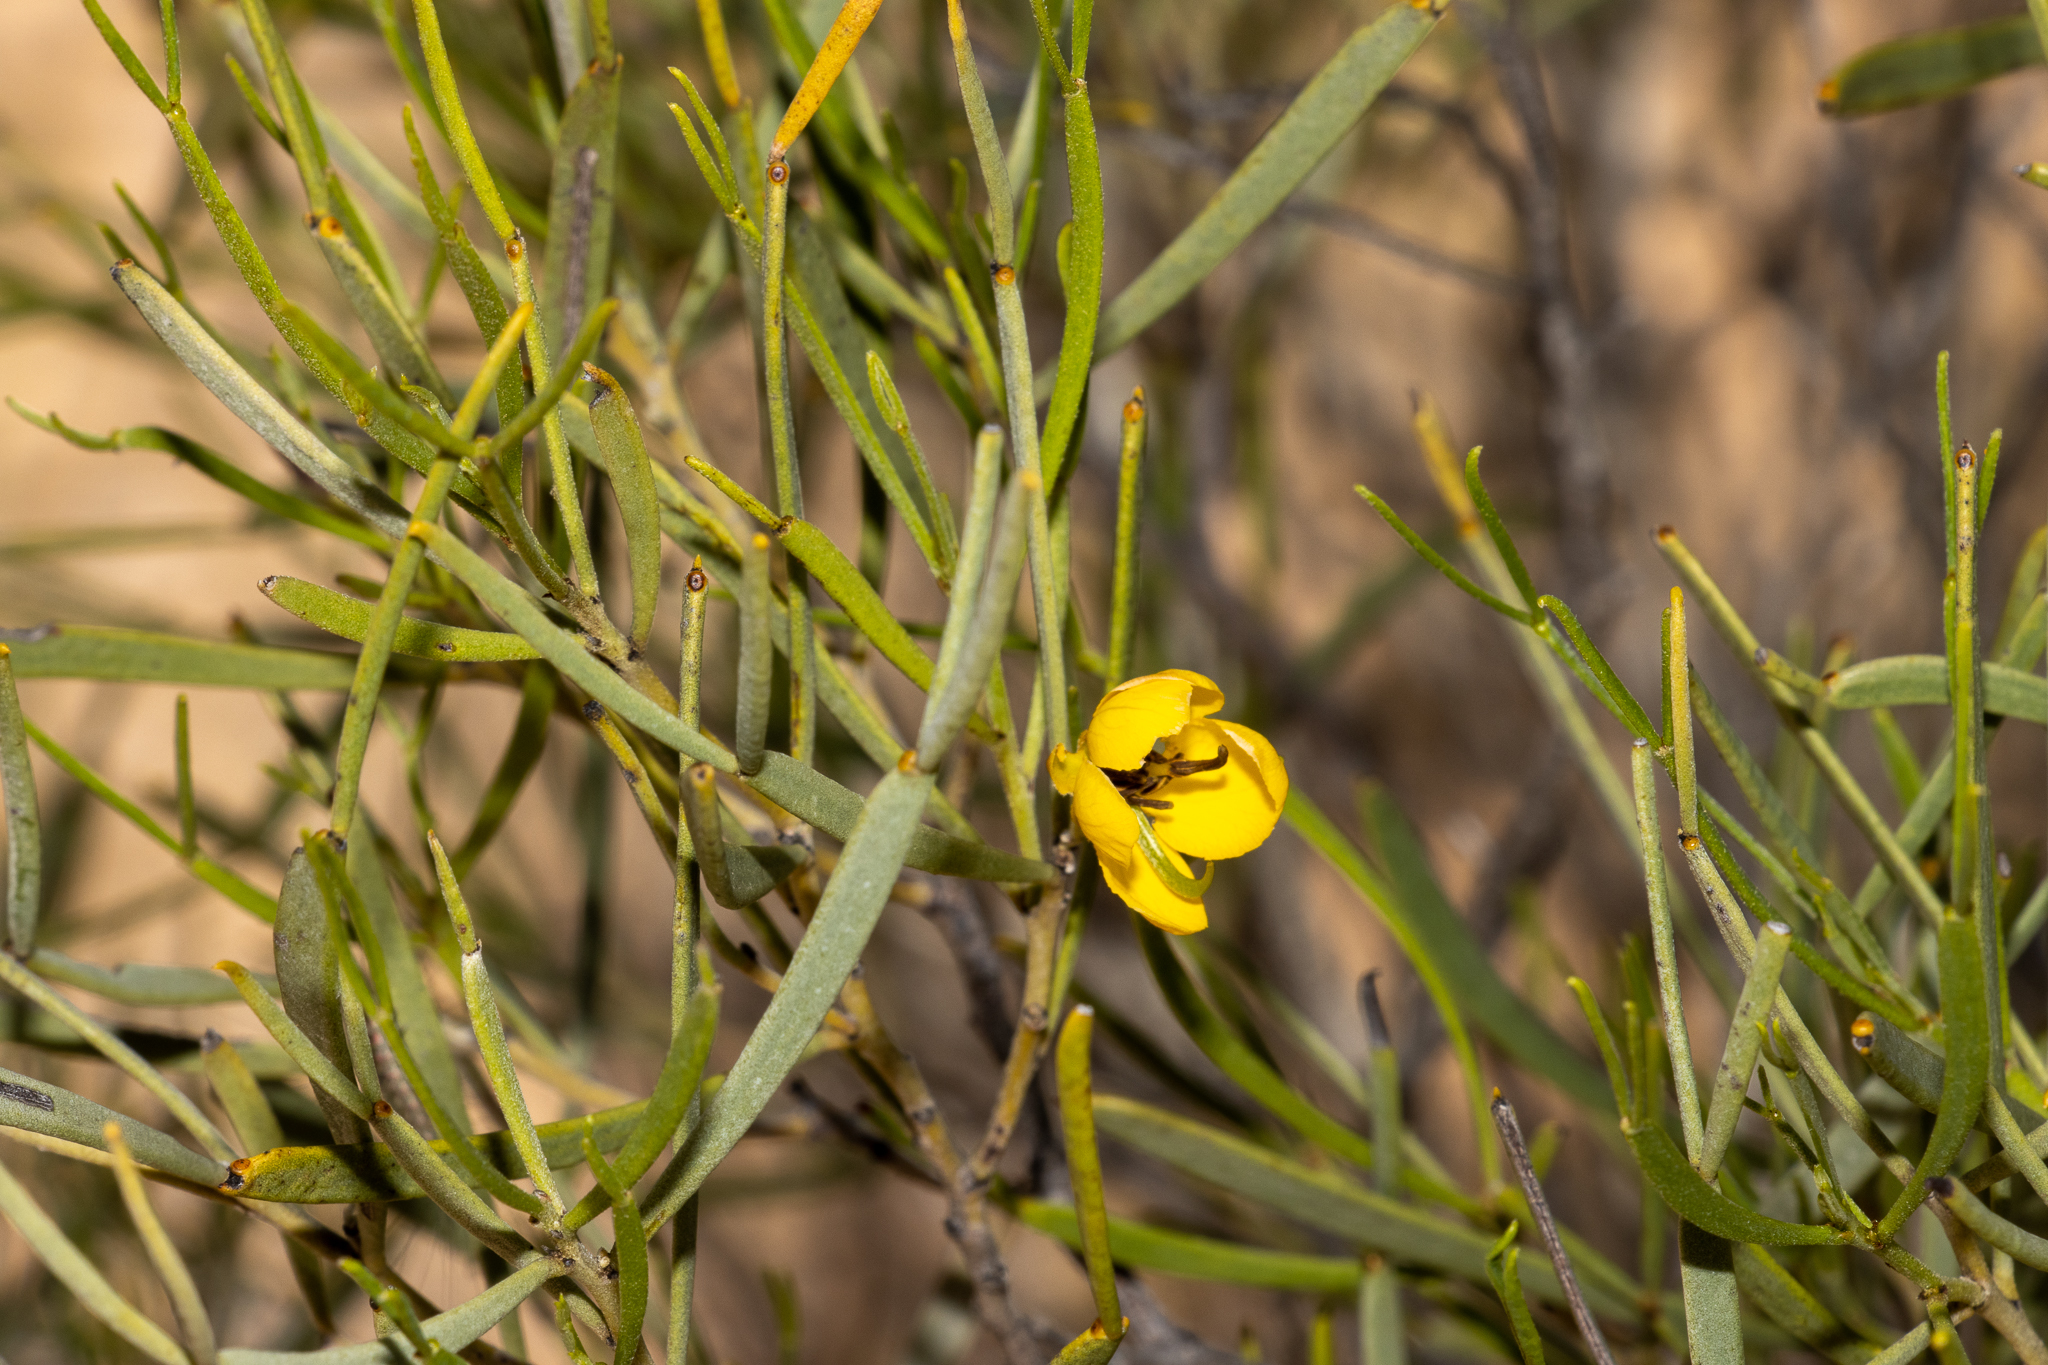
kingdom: Plantae
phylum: Tracheophyta
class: Magnoliopsida
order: Fabales
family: Fabaceae
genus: Senna
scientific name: Senna artemisioides
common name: Burnt-leaved acacia
